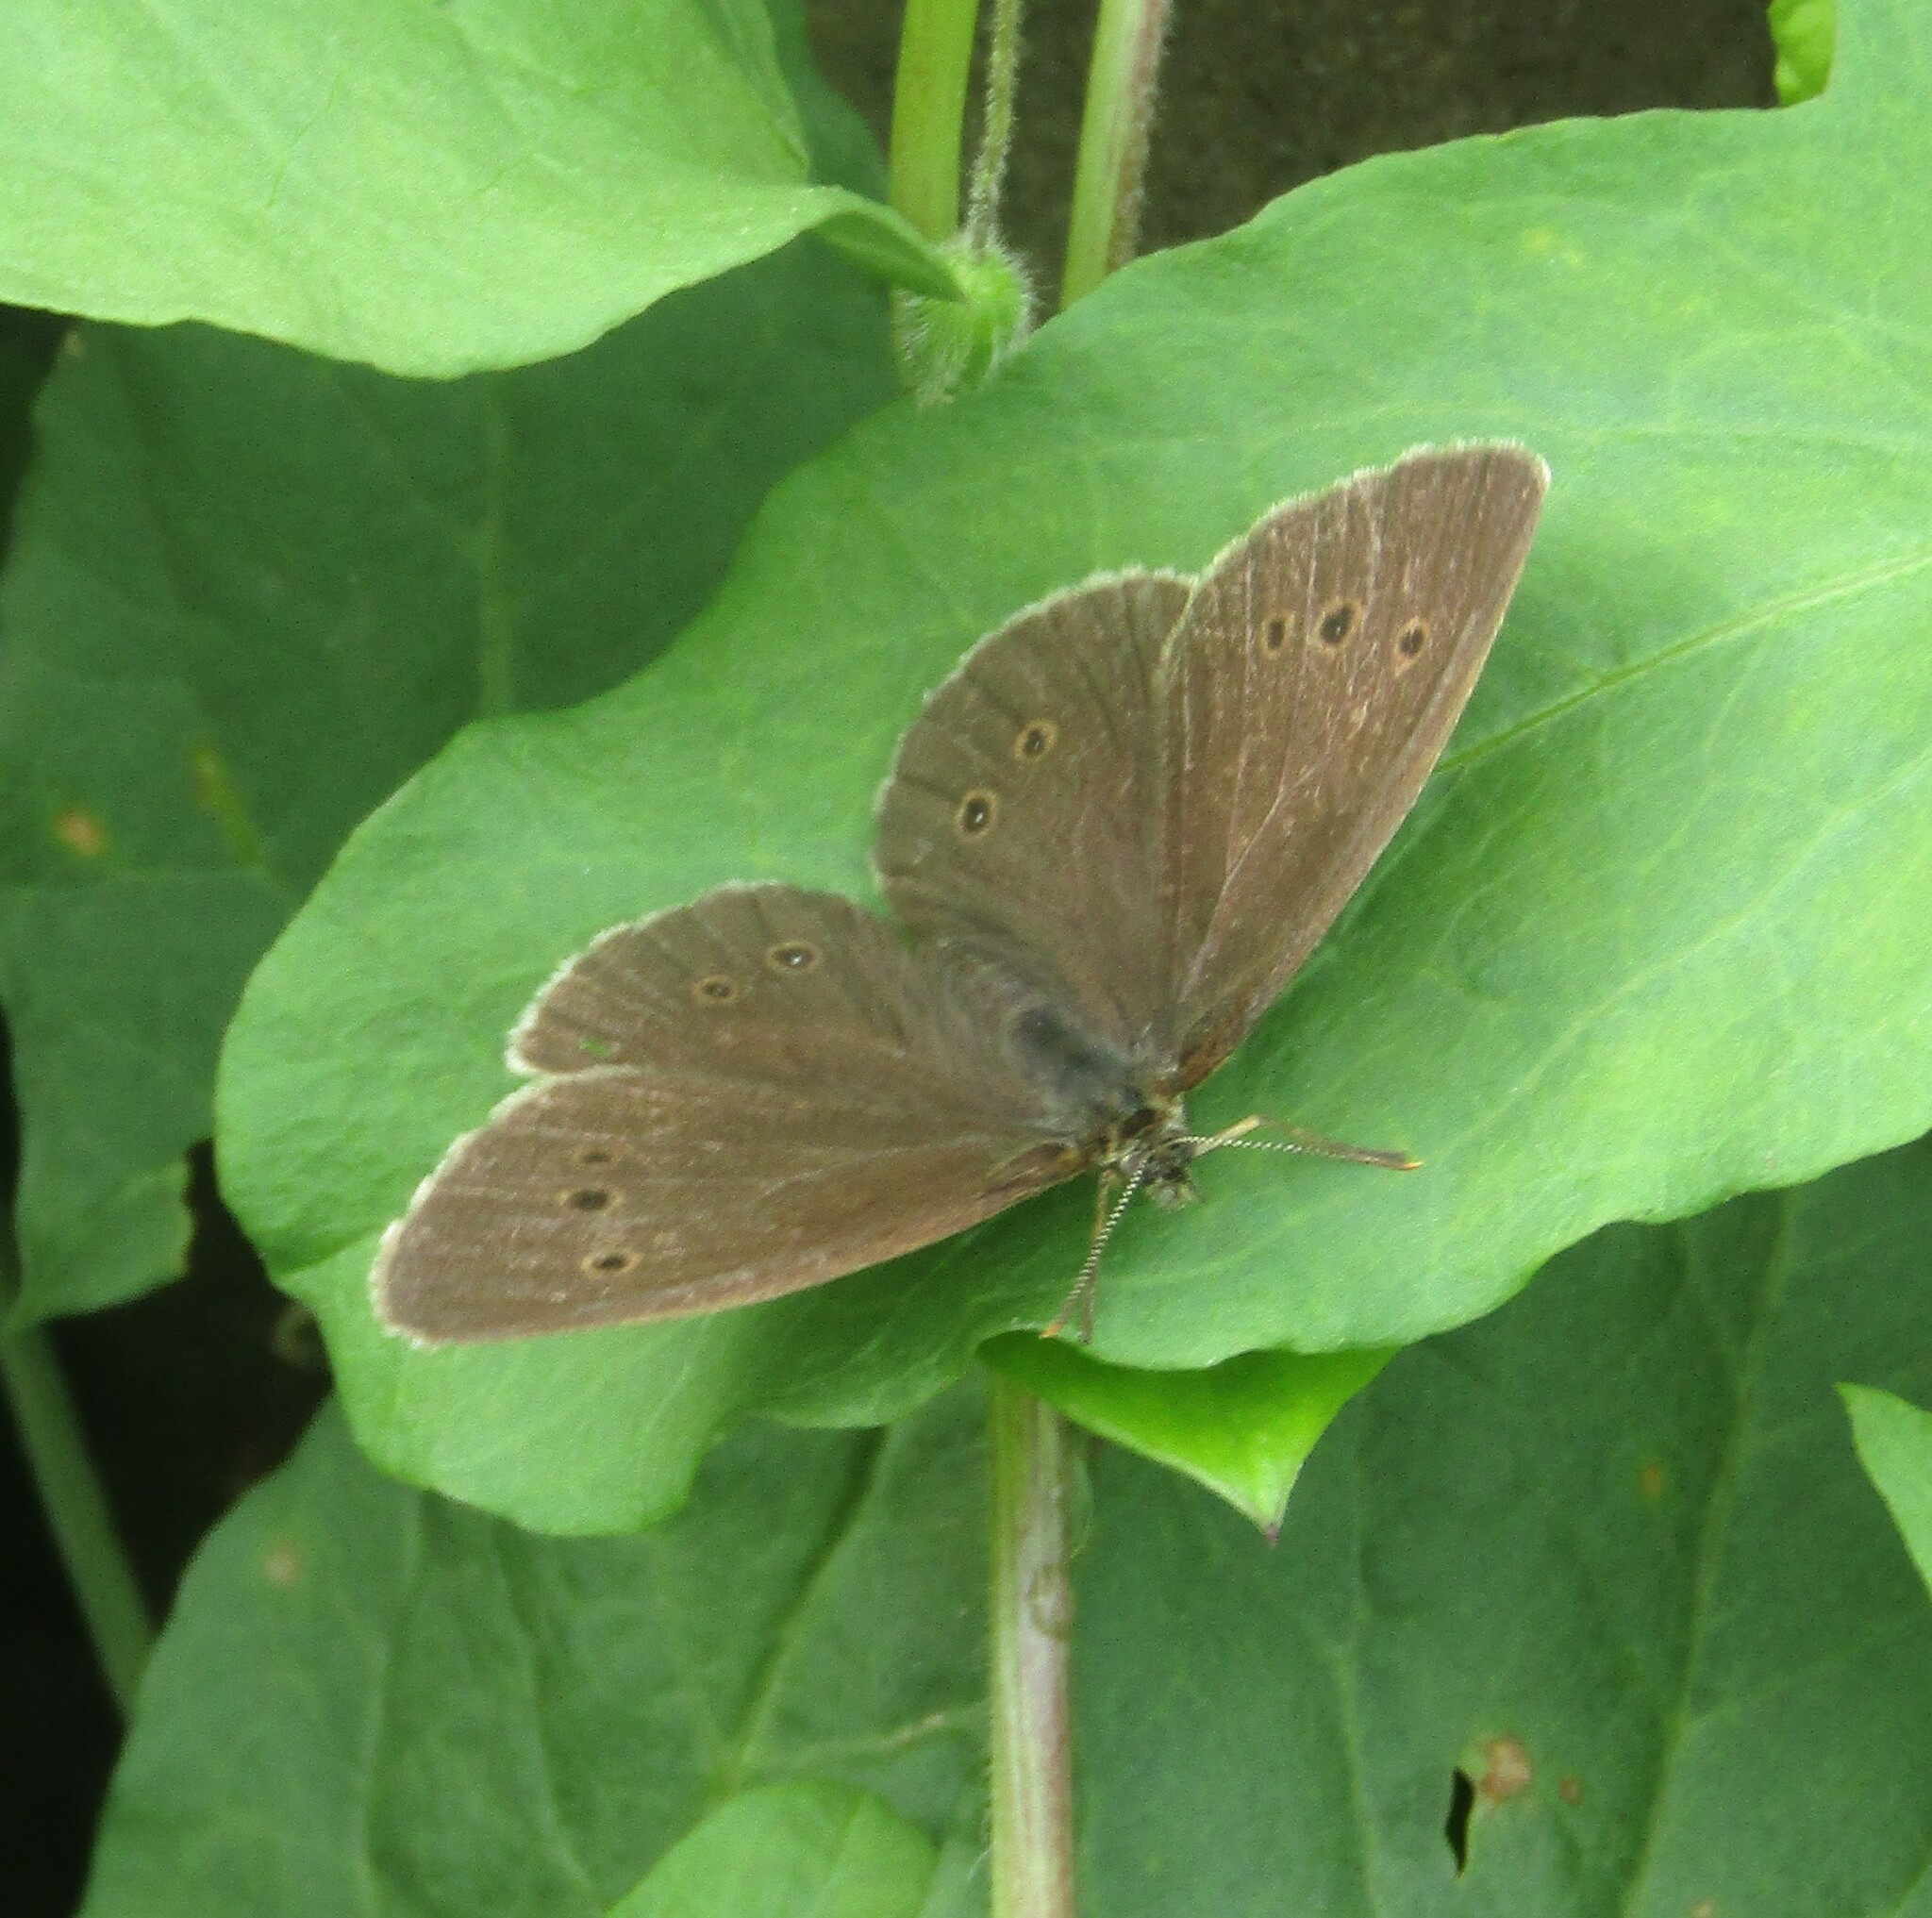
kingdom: Animalia
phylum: Arthropoda
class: Insecta
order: Lepidoptera
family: Nymphalidae
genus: Aphantopus
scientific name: Aphantopus hyperantus
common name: Ringlet
